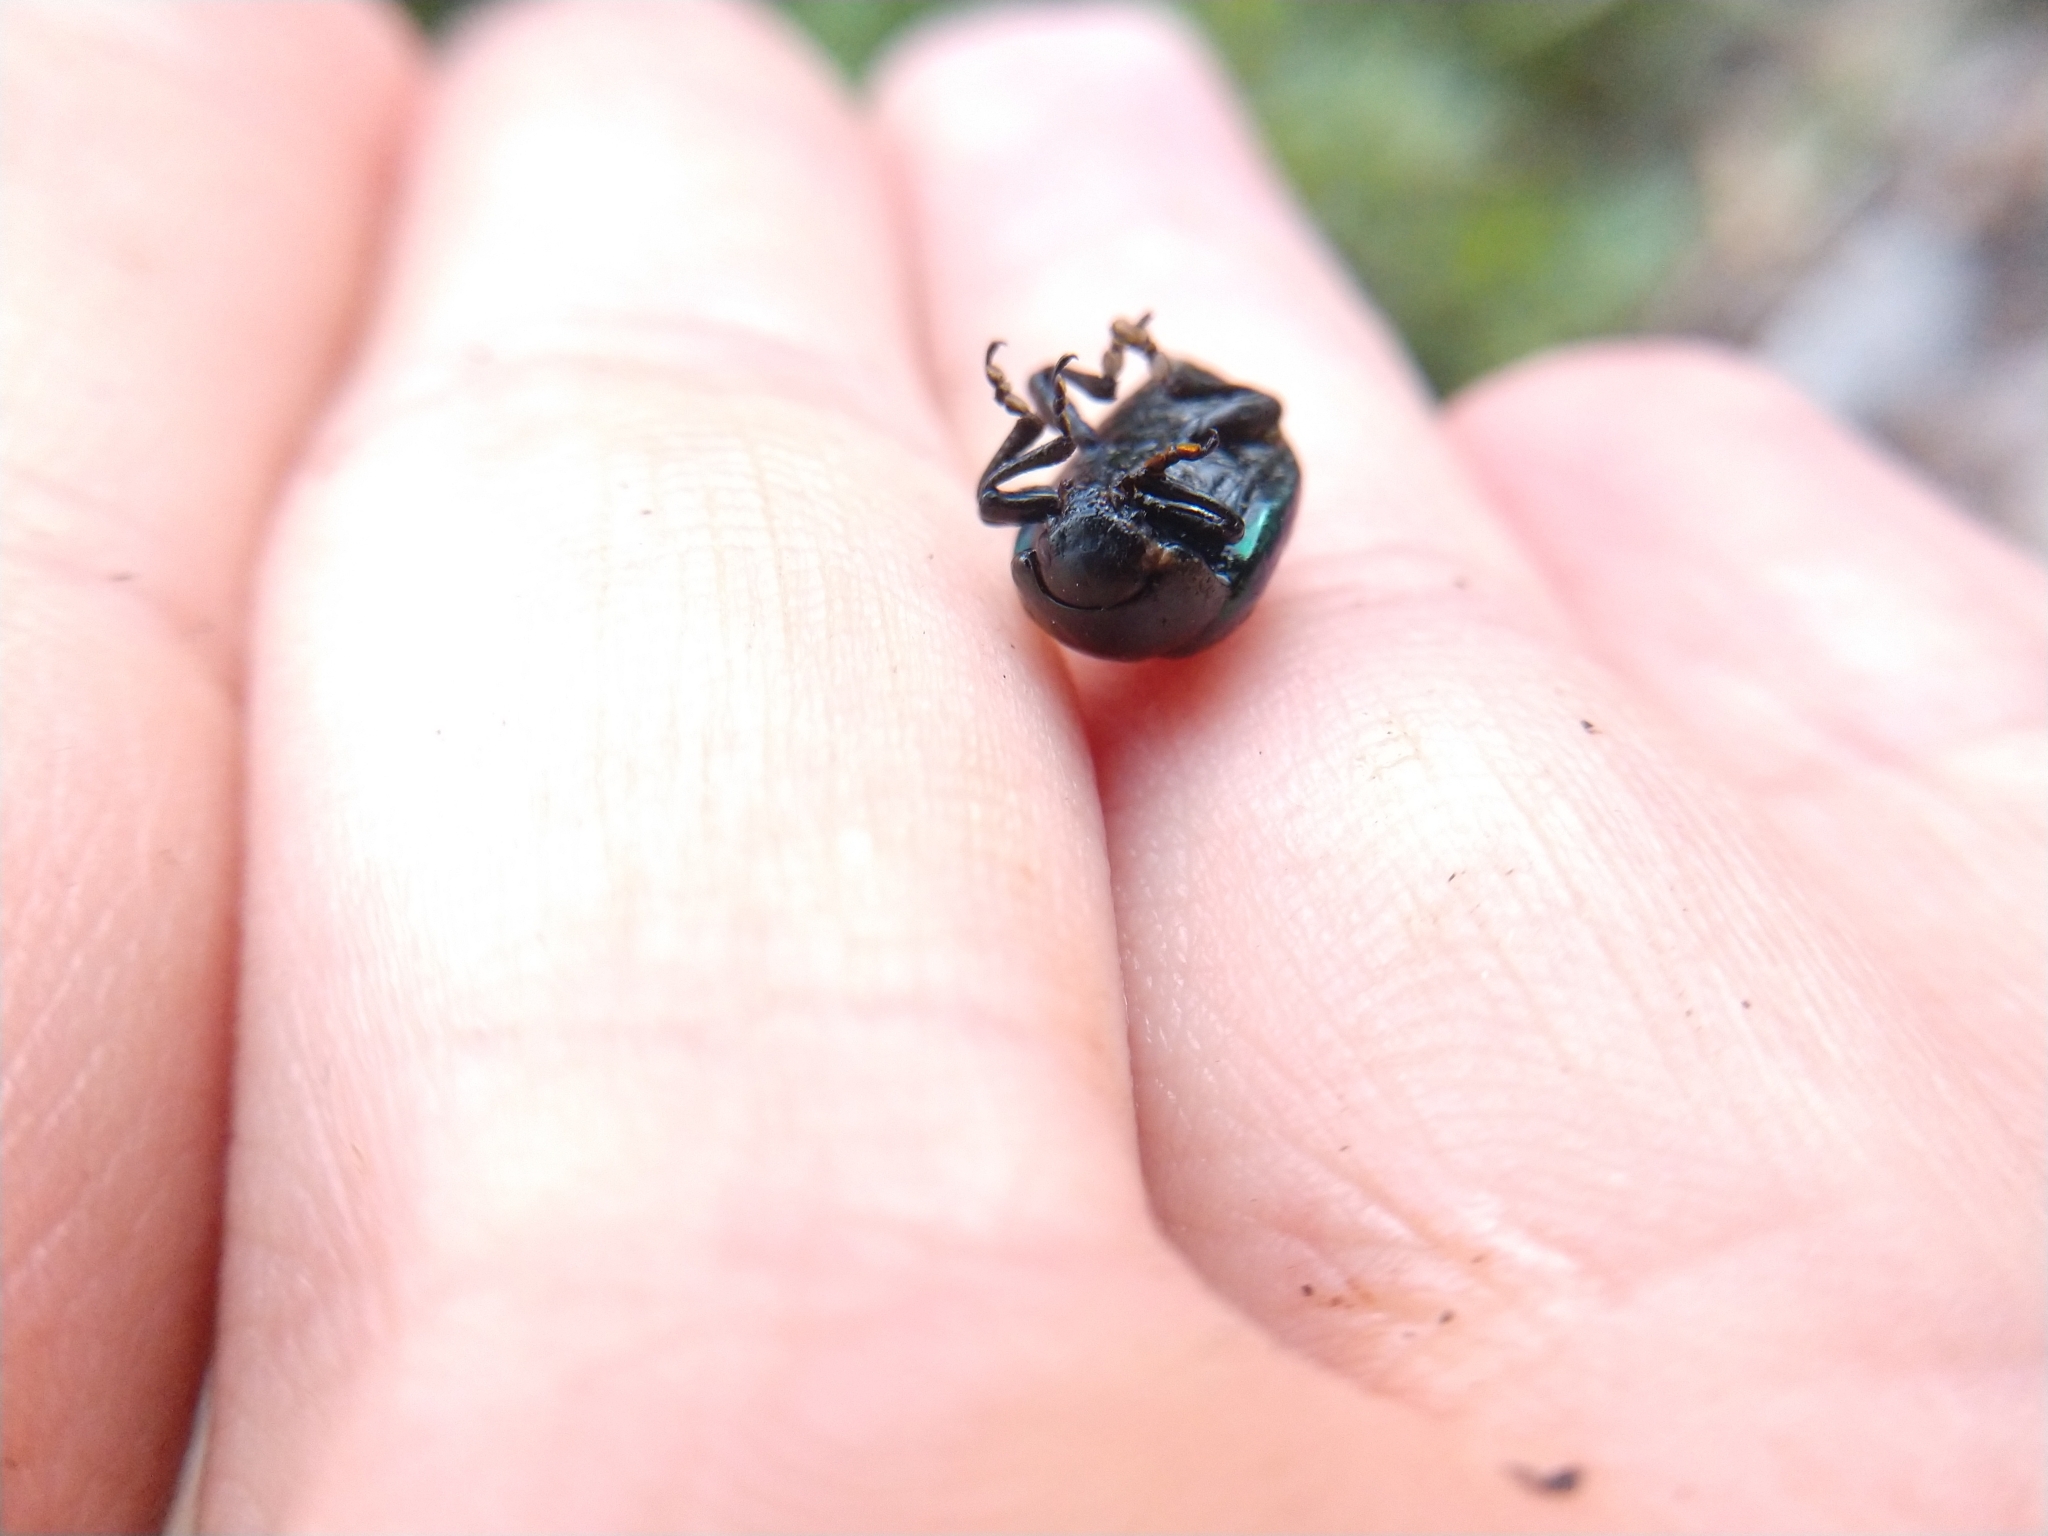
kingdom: Animalia
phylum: Arthropoda
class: Insecta
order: Coleoptera
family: Chrysomelidae
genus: Leptinotarsa
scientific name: Leptinotarsa haldemani
